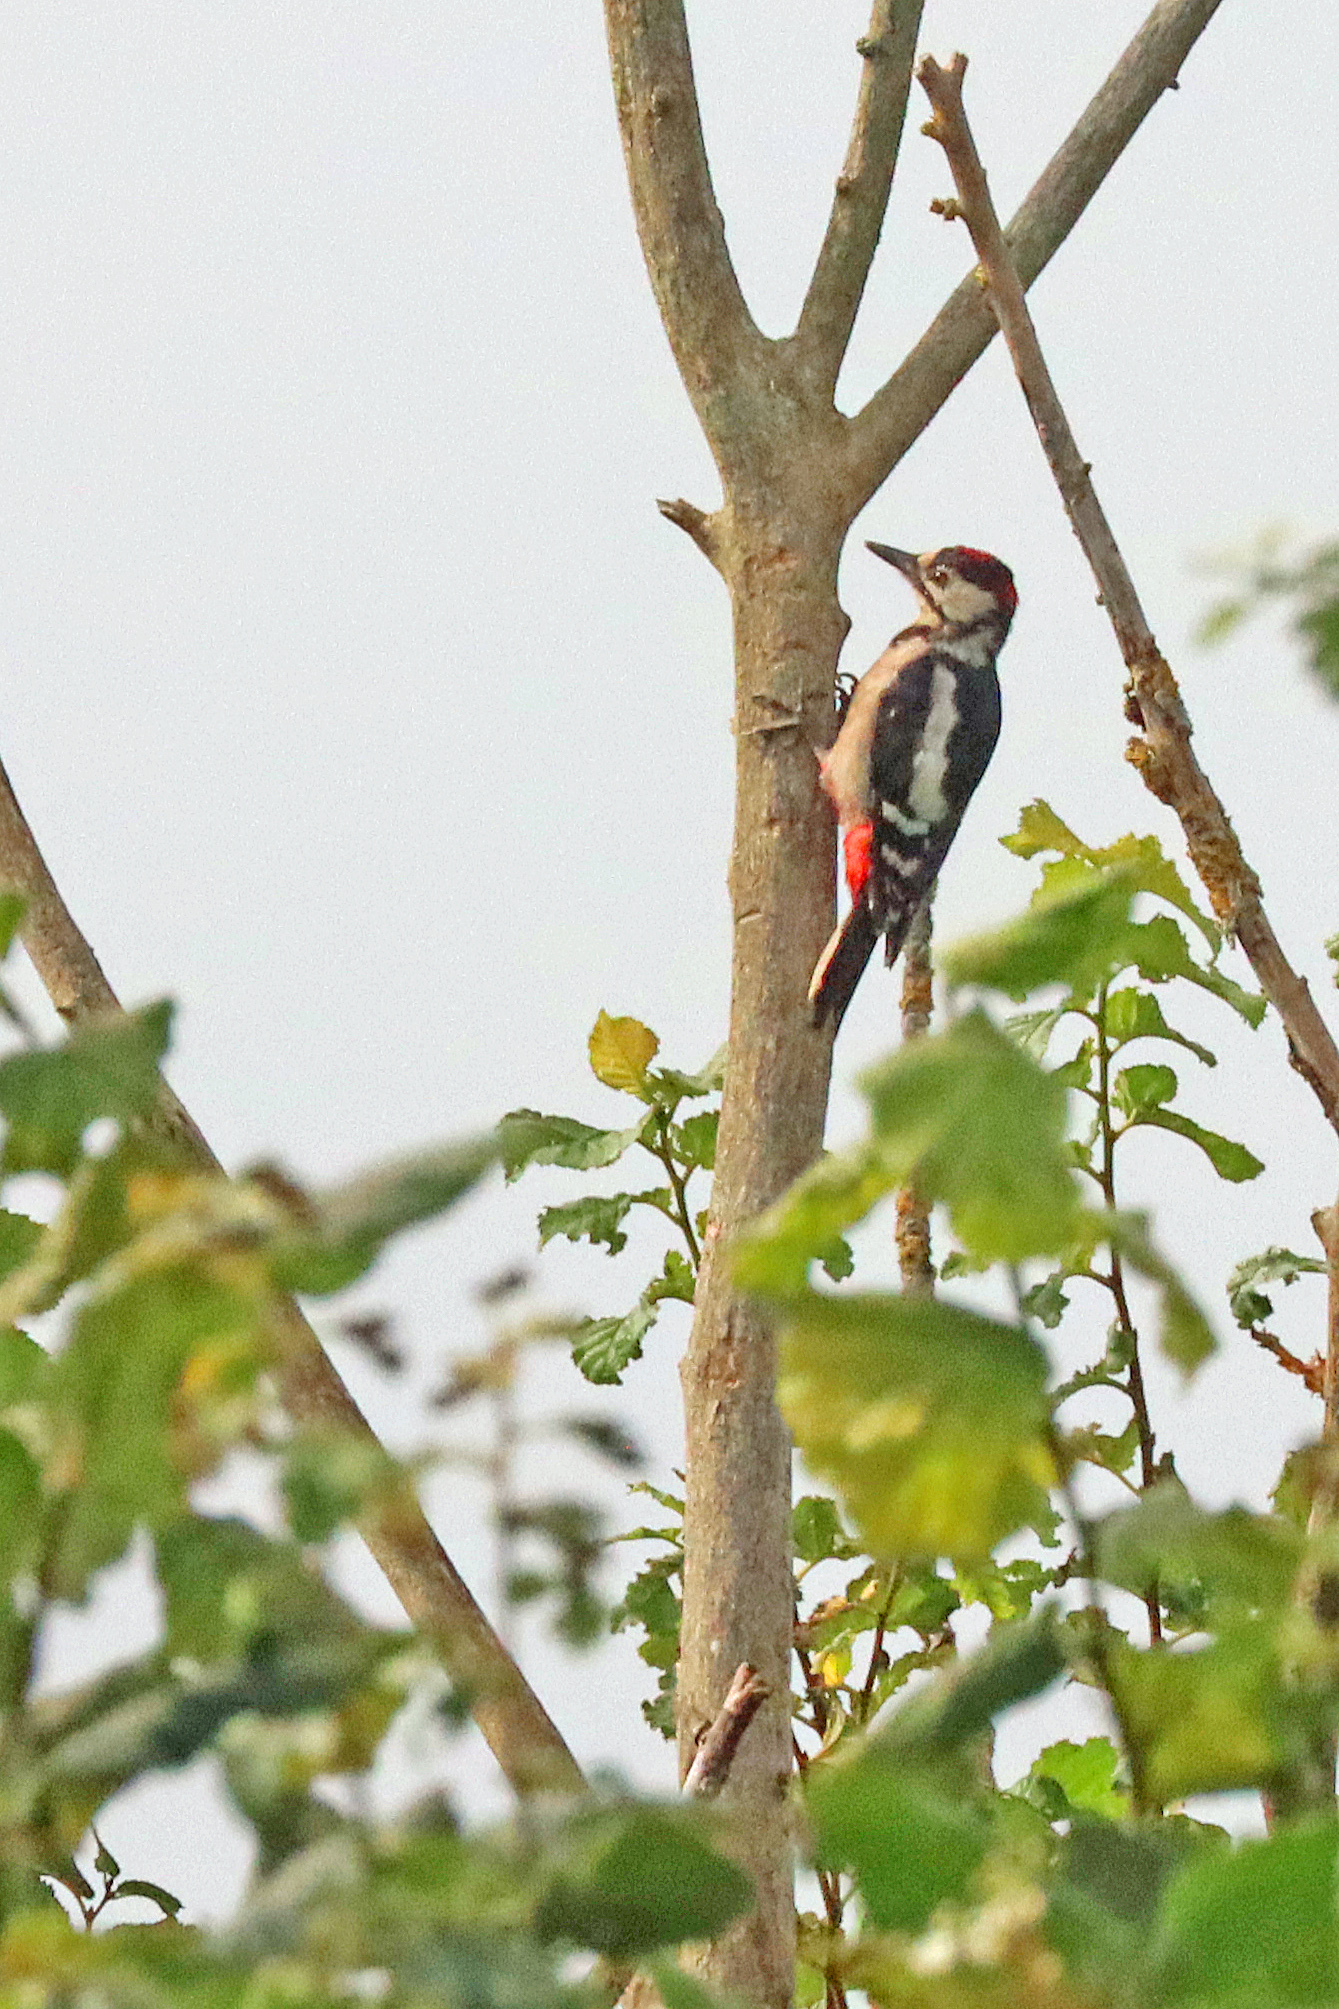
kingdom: Animalia
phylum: Chordata
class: Aves
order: Piciformes
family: Picidae
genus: Dendrocopos
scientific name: Dendrocopos major
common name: Great spotted woodpecker
